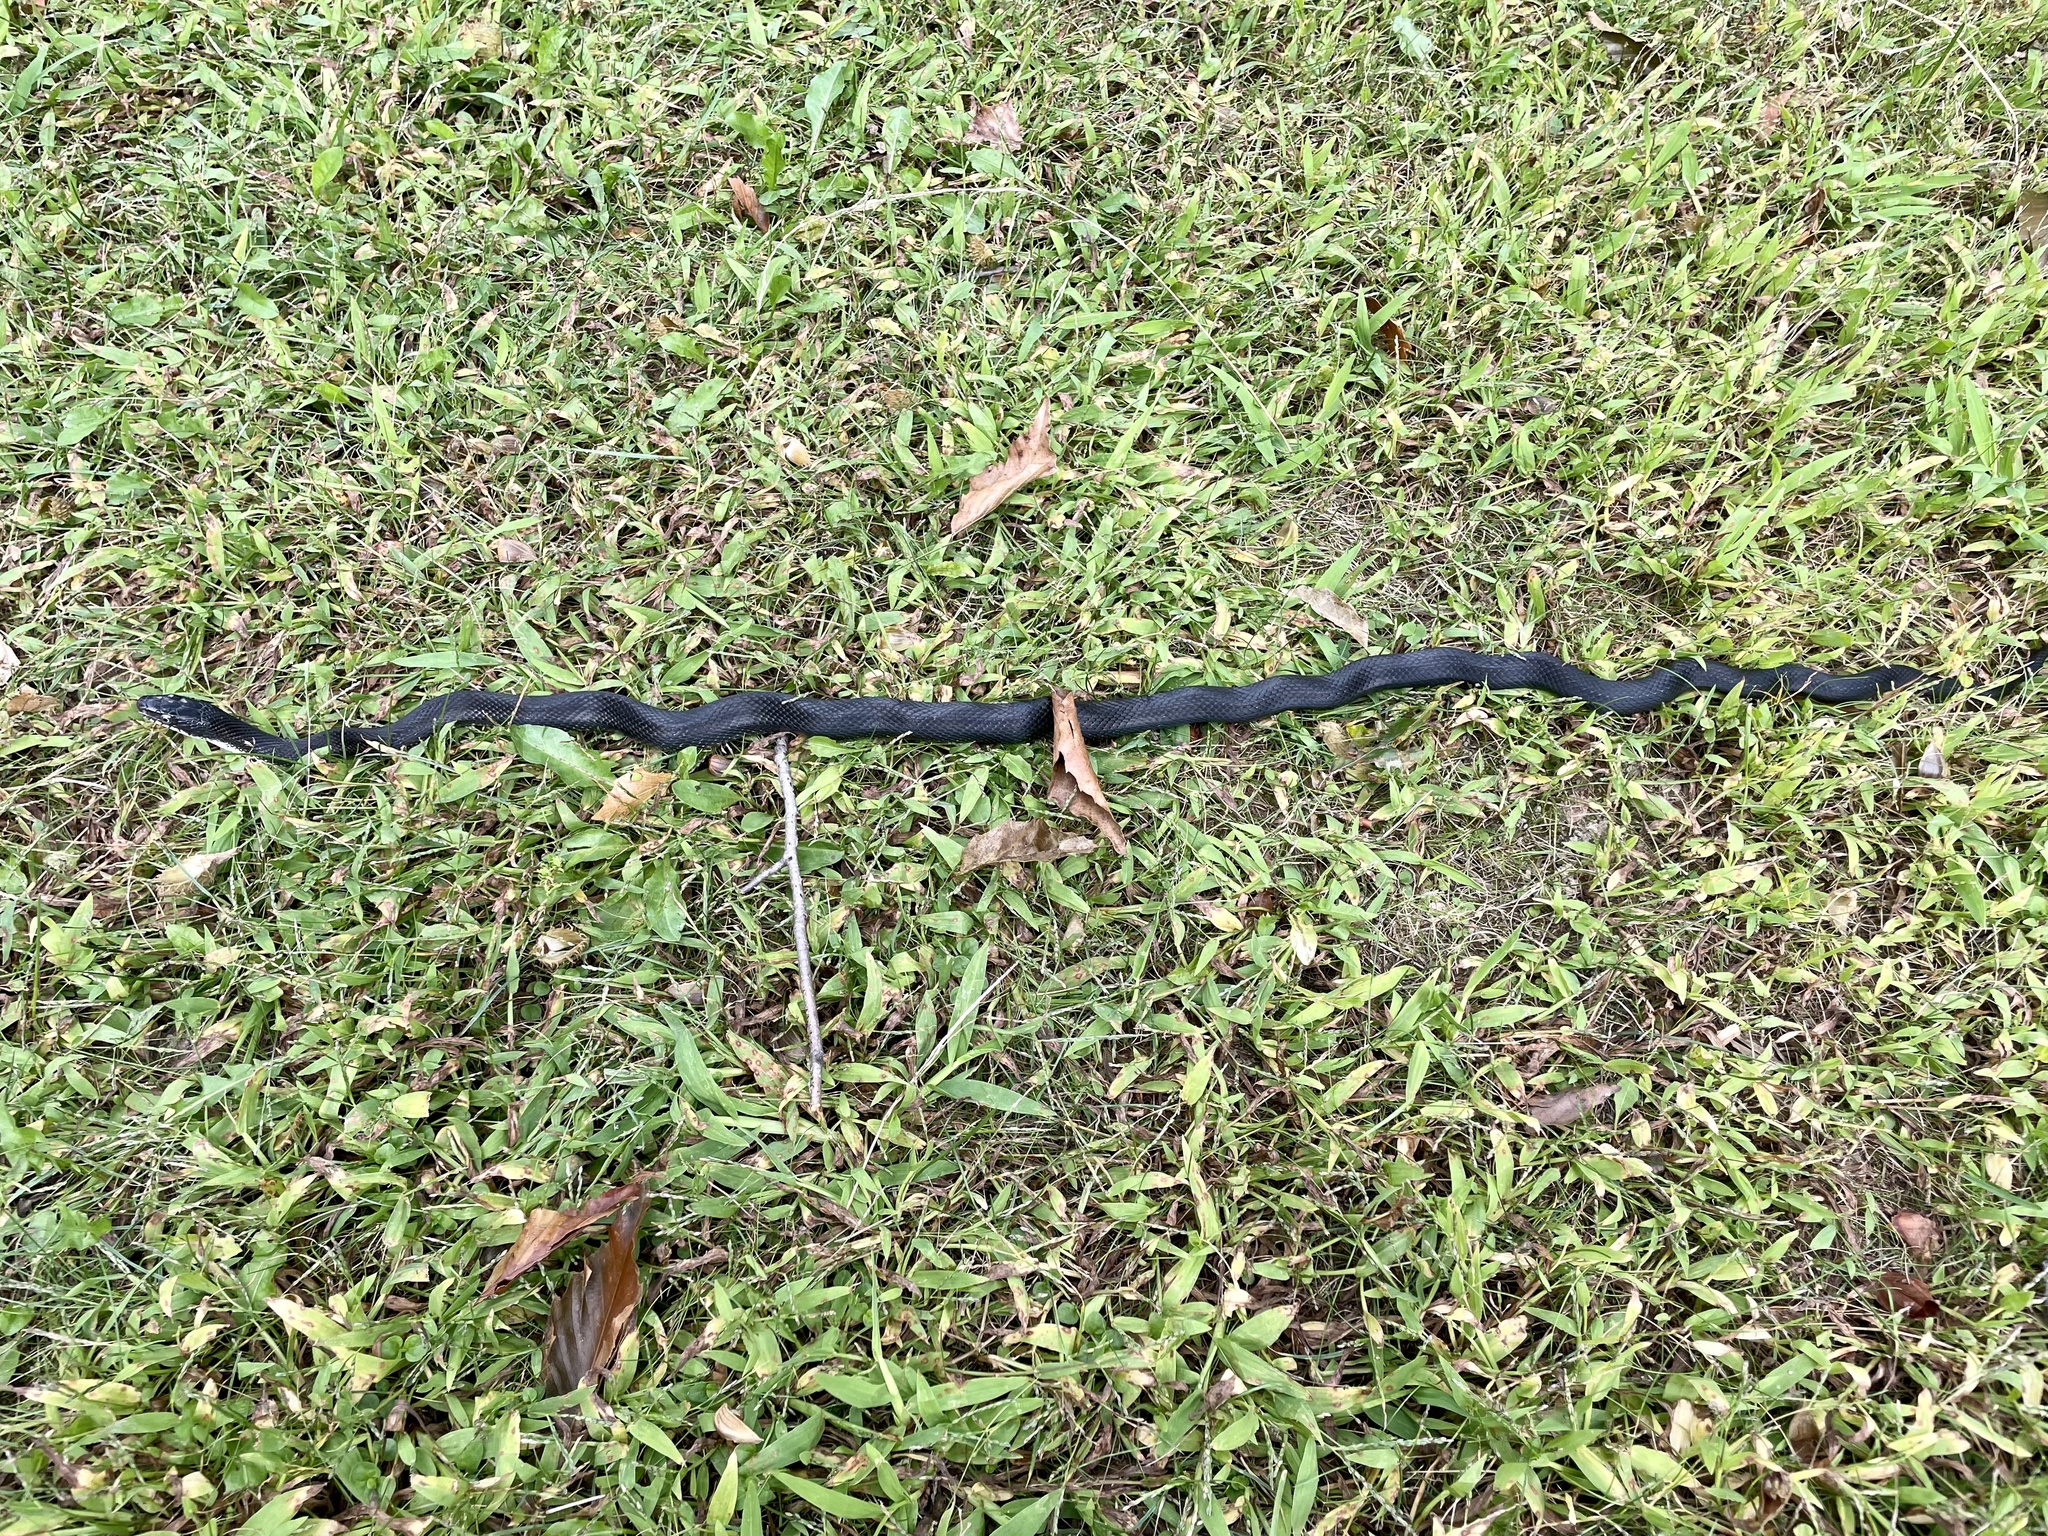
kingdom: Animalia
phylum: Chordata
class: Squamata
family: Colubridae
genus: Pantherophis
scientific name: Pantherophis spiloides
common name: Gray rat snake
